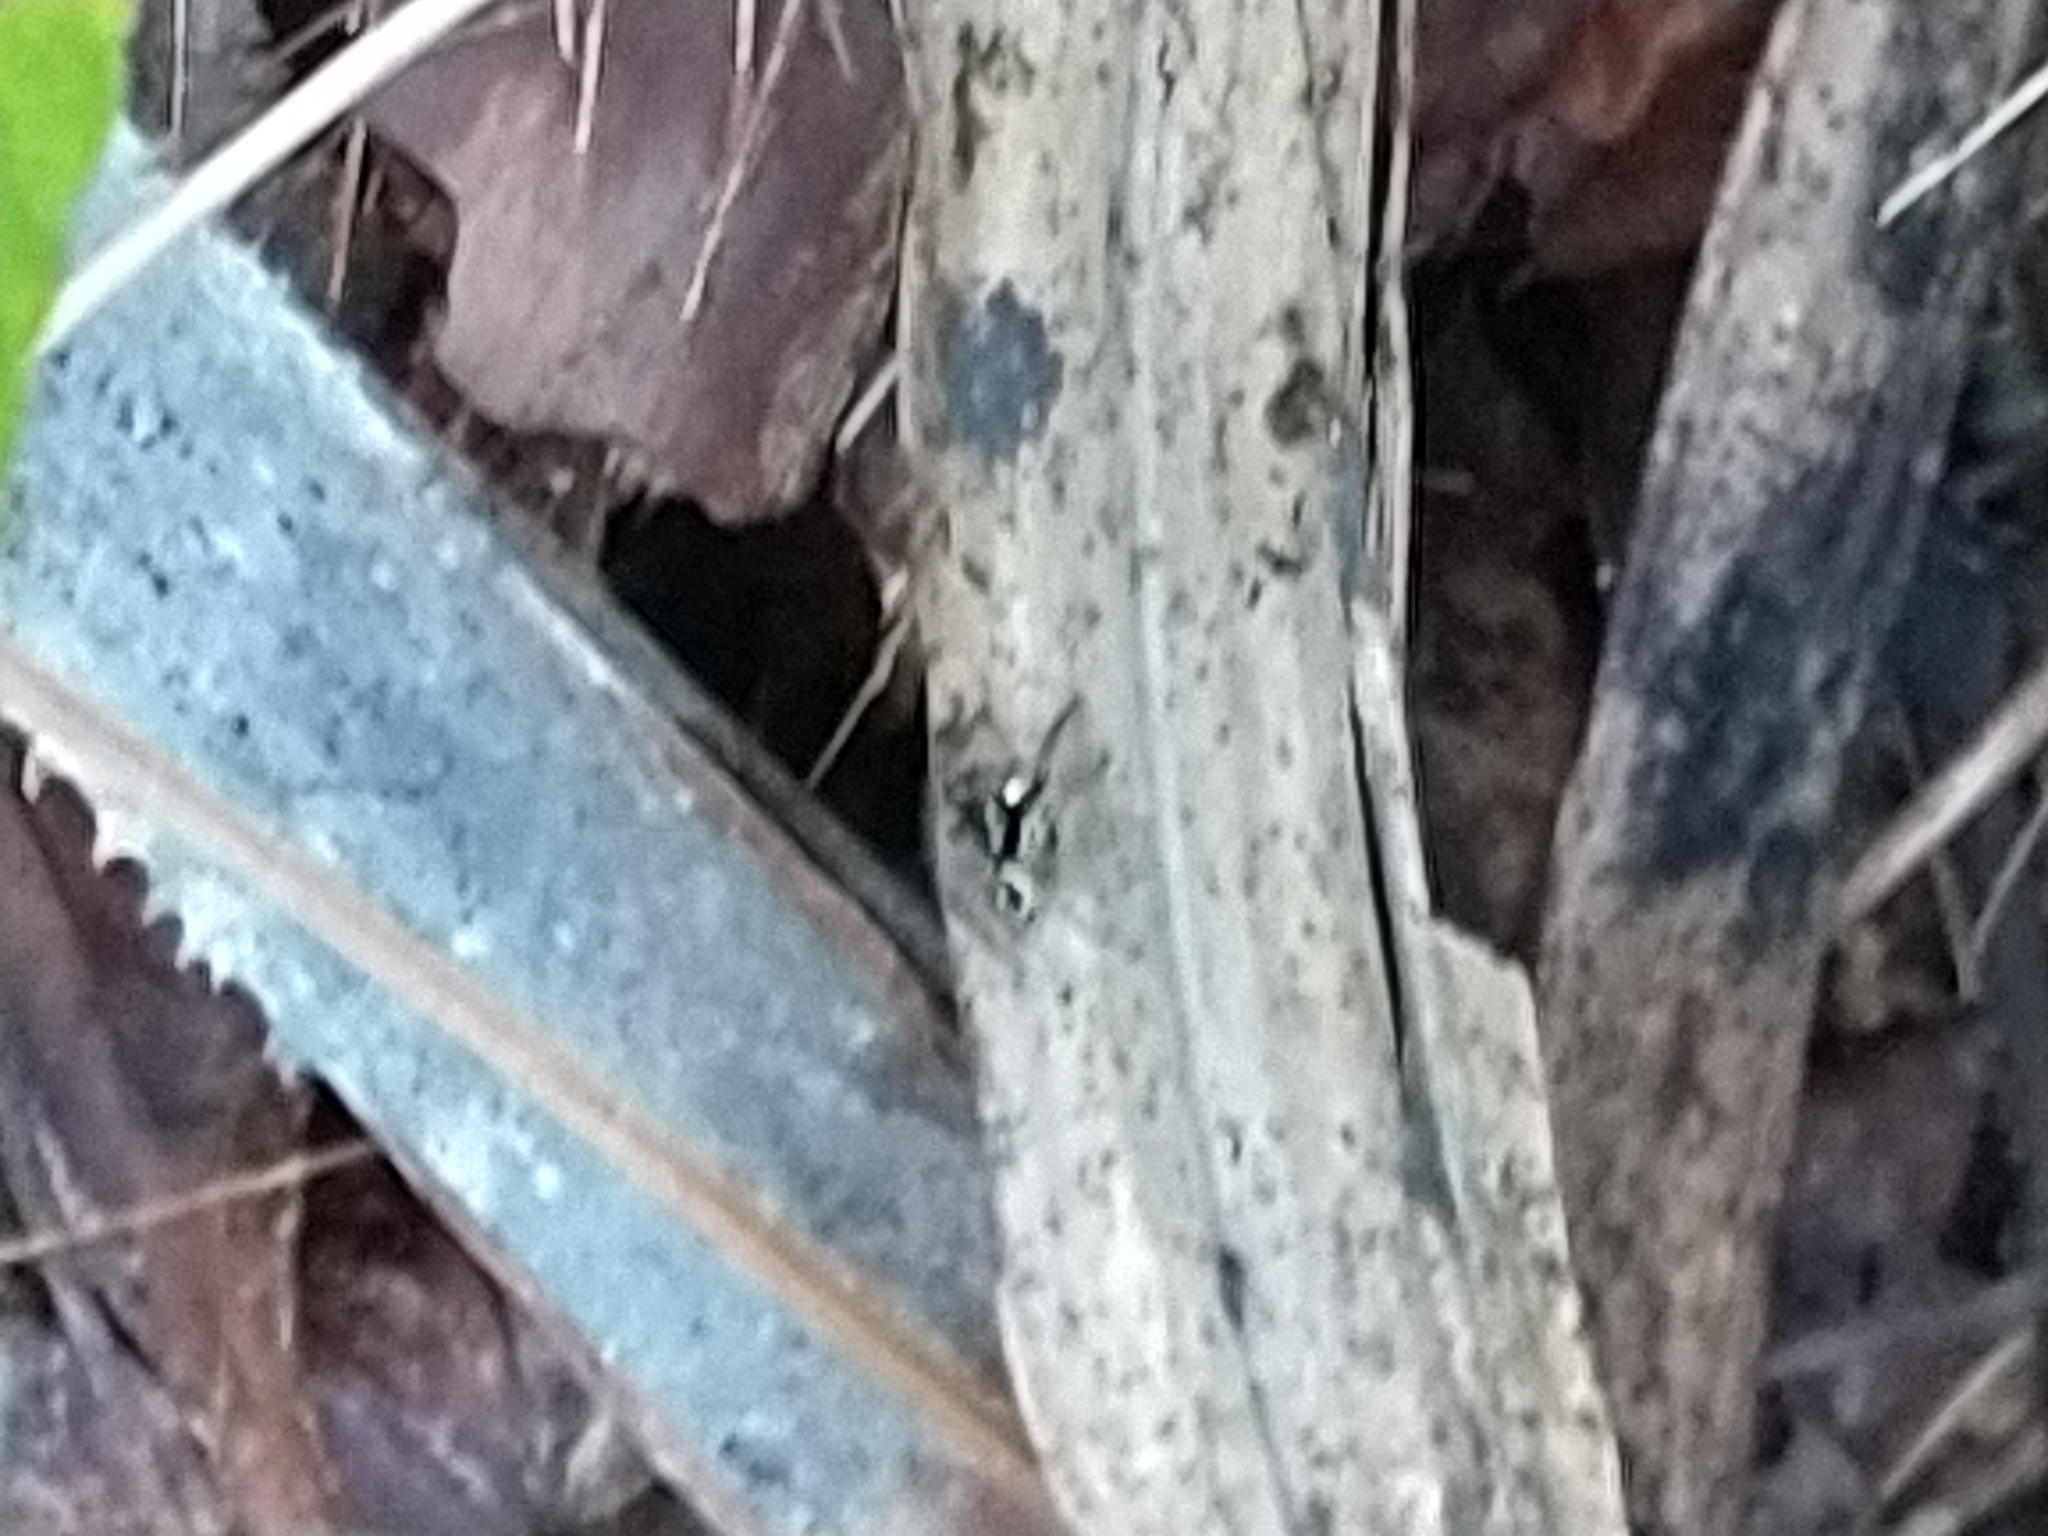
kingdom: Animalia
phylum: Arthropoda
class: Arachnida
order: Araneae
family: Salticidae
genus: Anasaitis
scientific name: Anasaitis canosa
